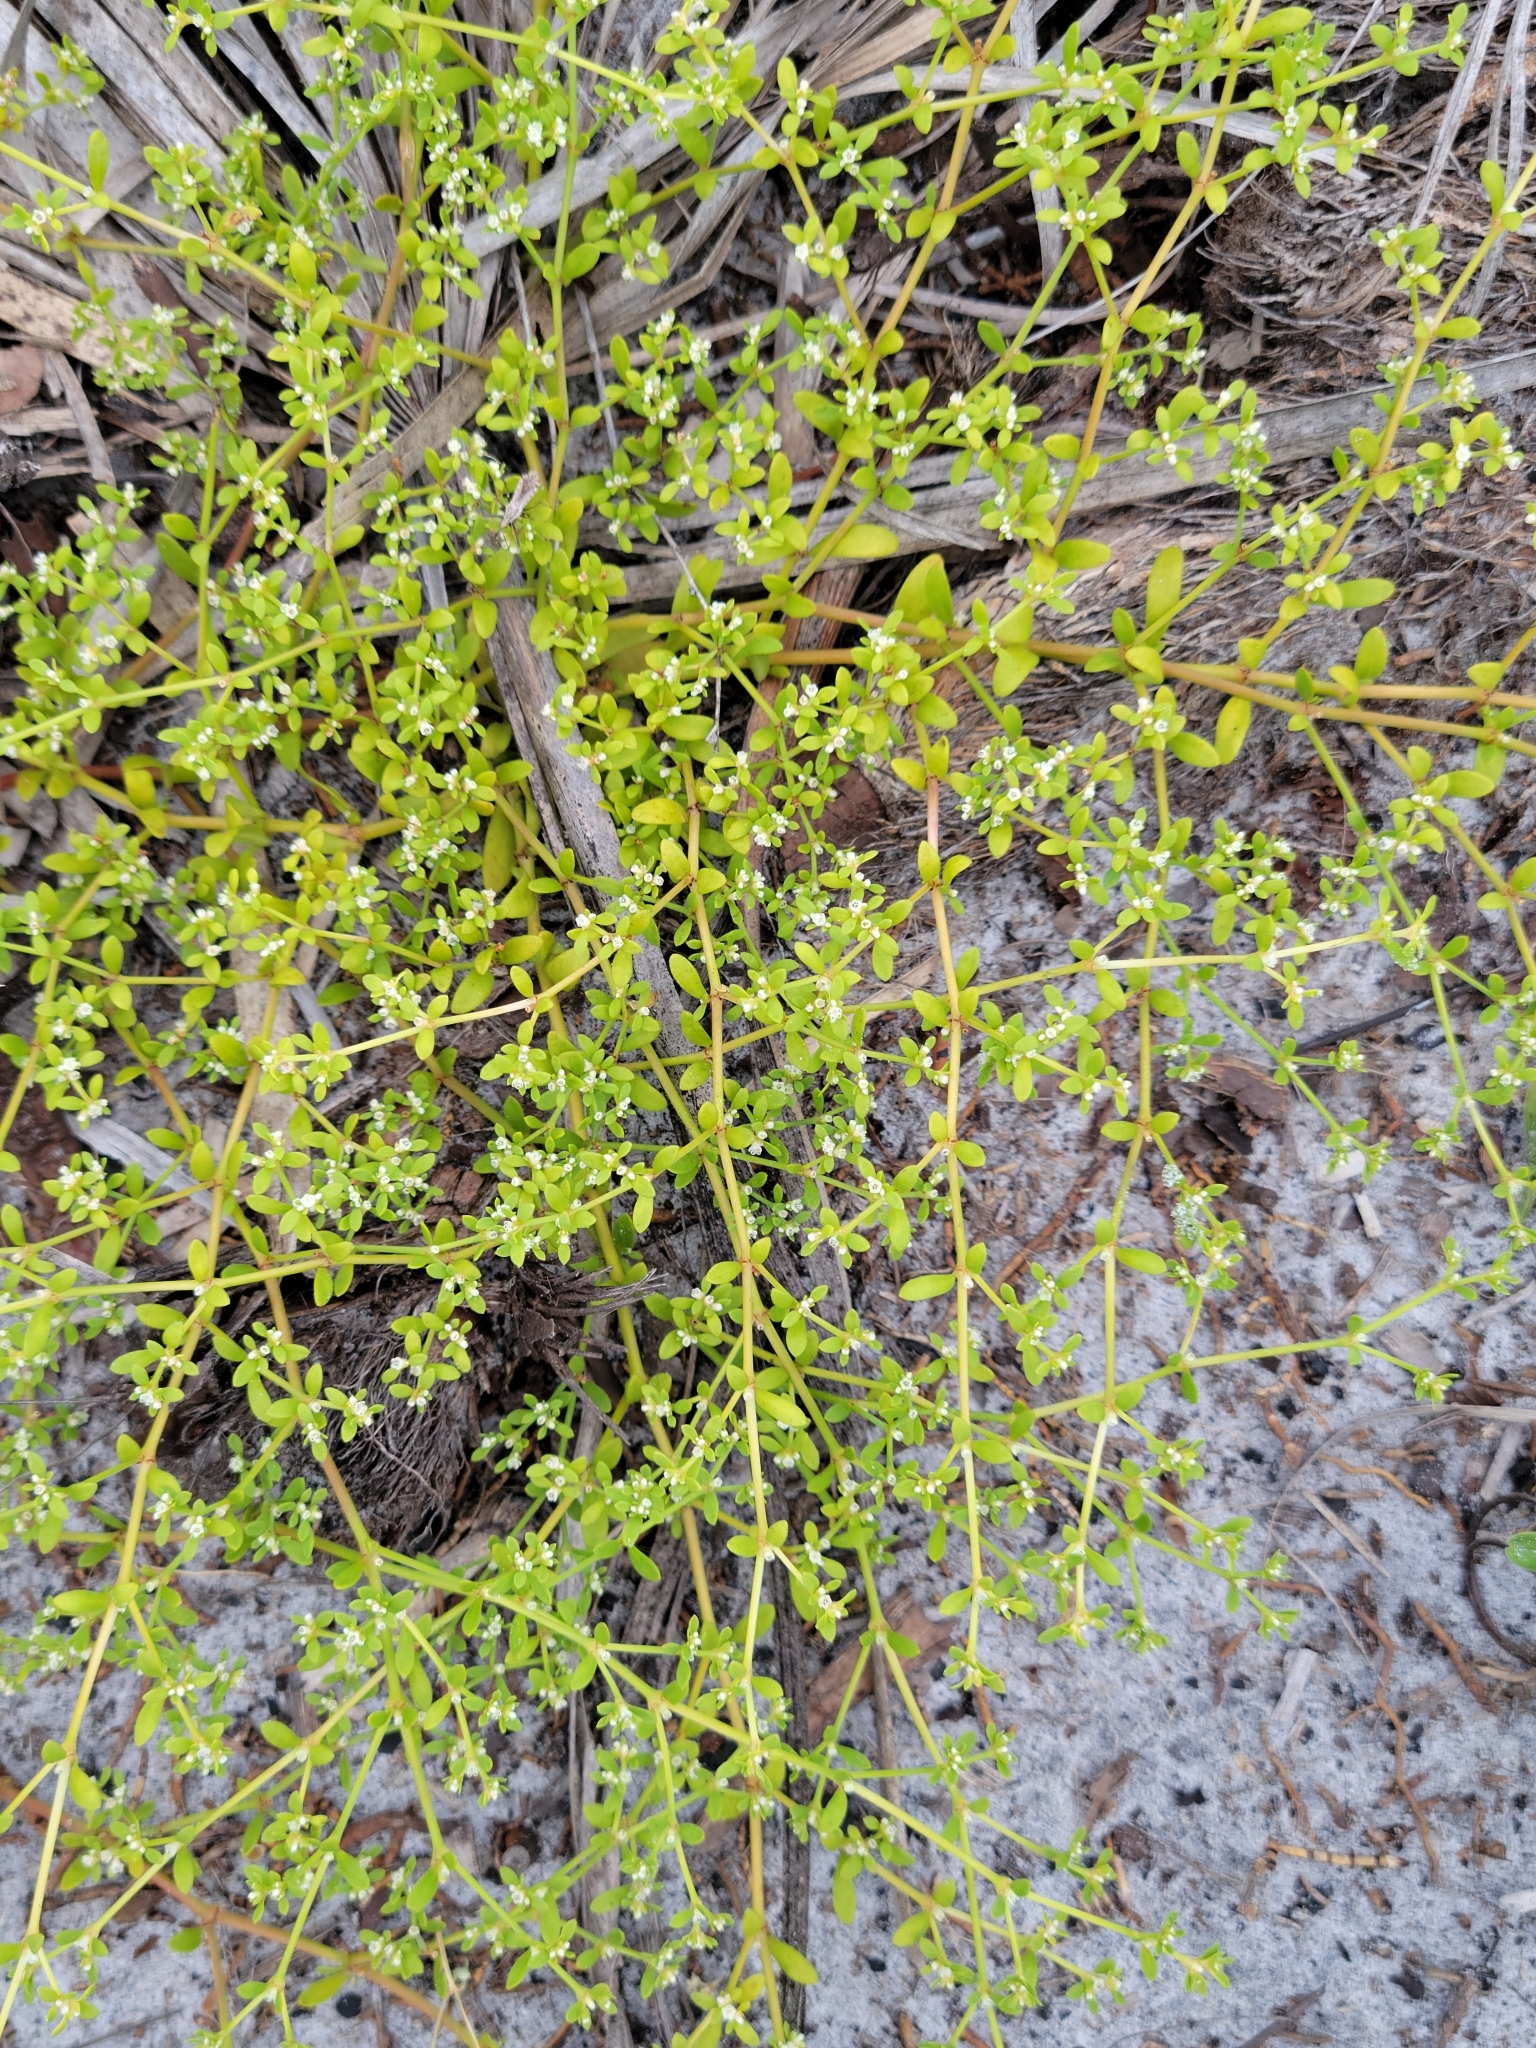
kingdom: Plantae
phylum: Tracheophyta
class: Magnoliopsida
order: Caryophyllales
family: Caryophyllaceae
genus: Paronychia
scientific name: Paronychia americana
